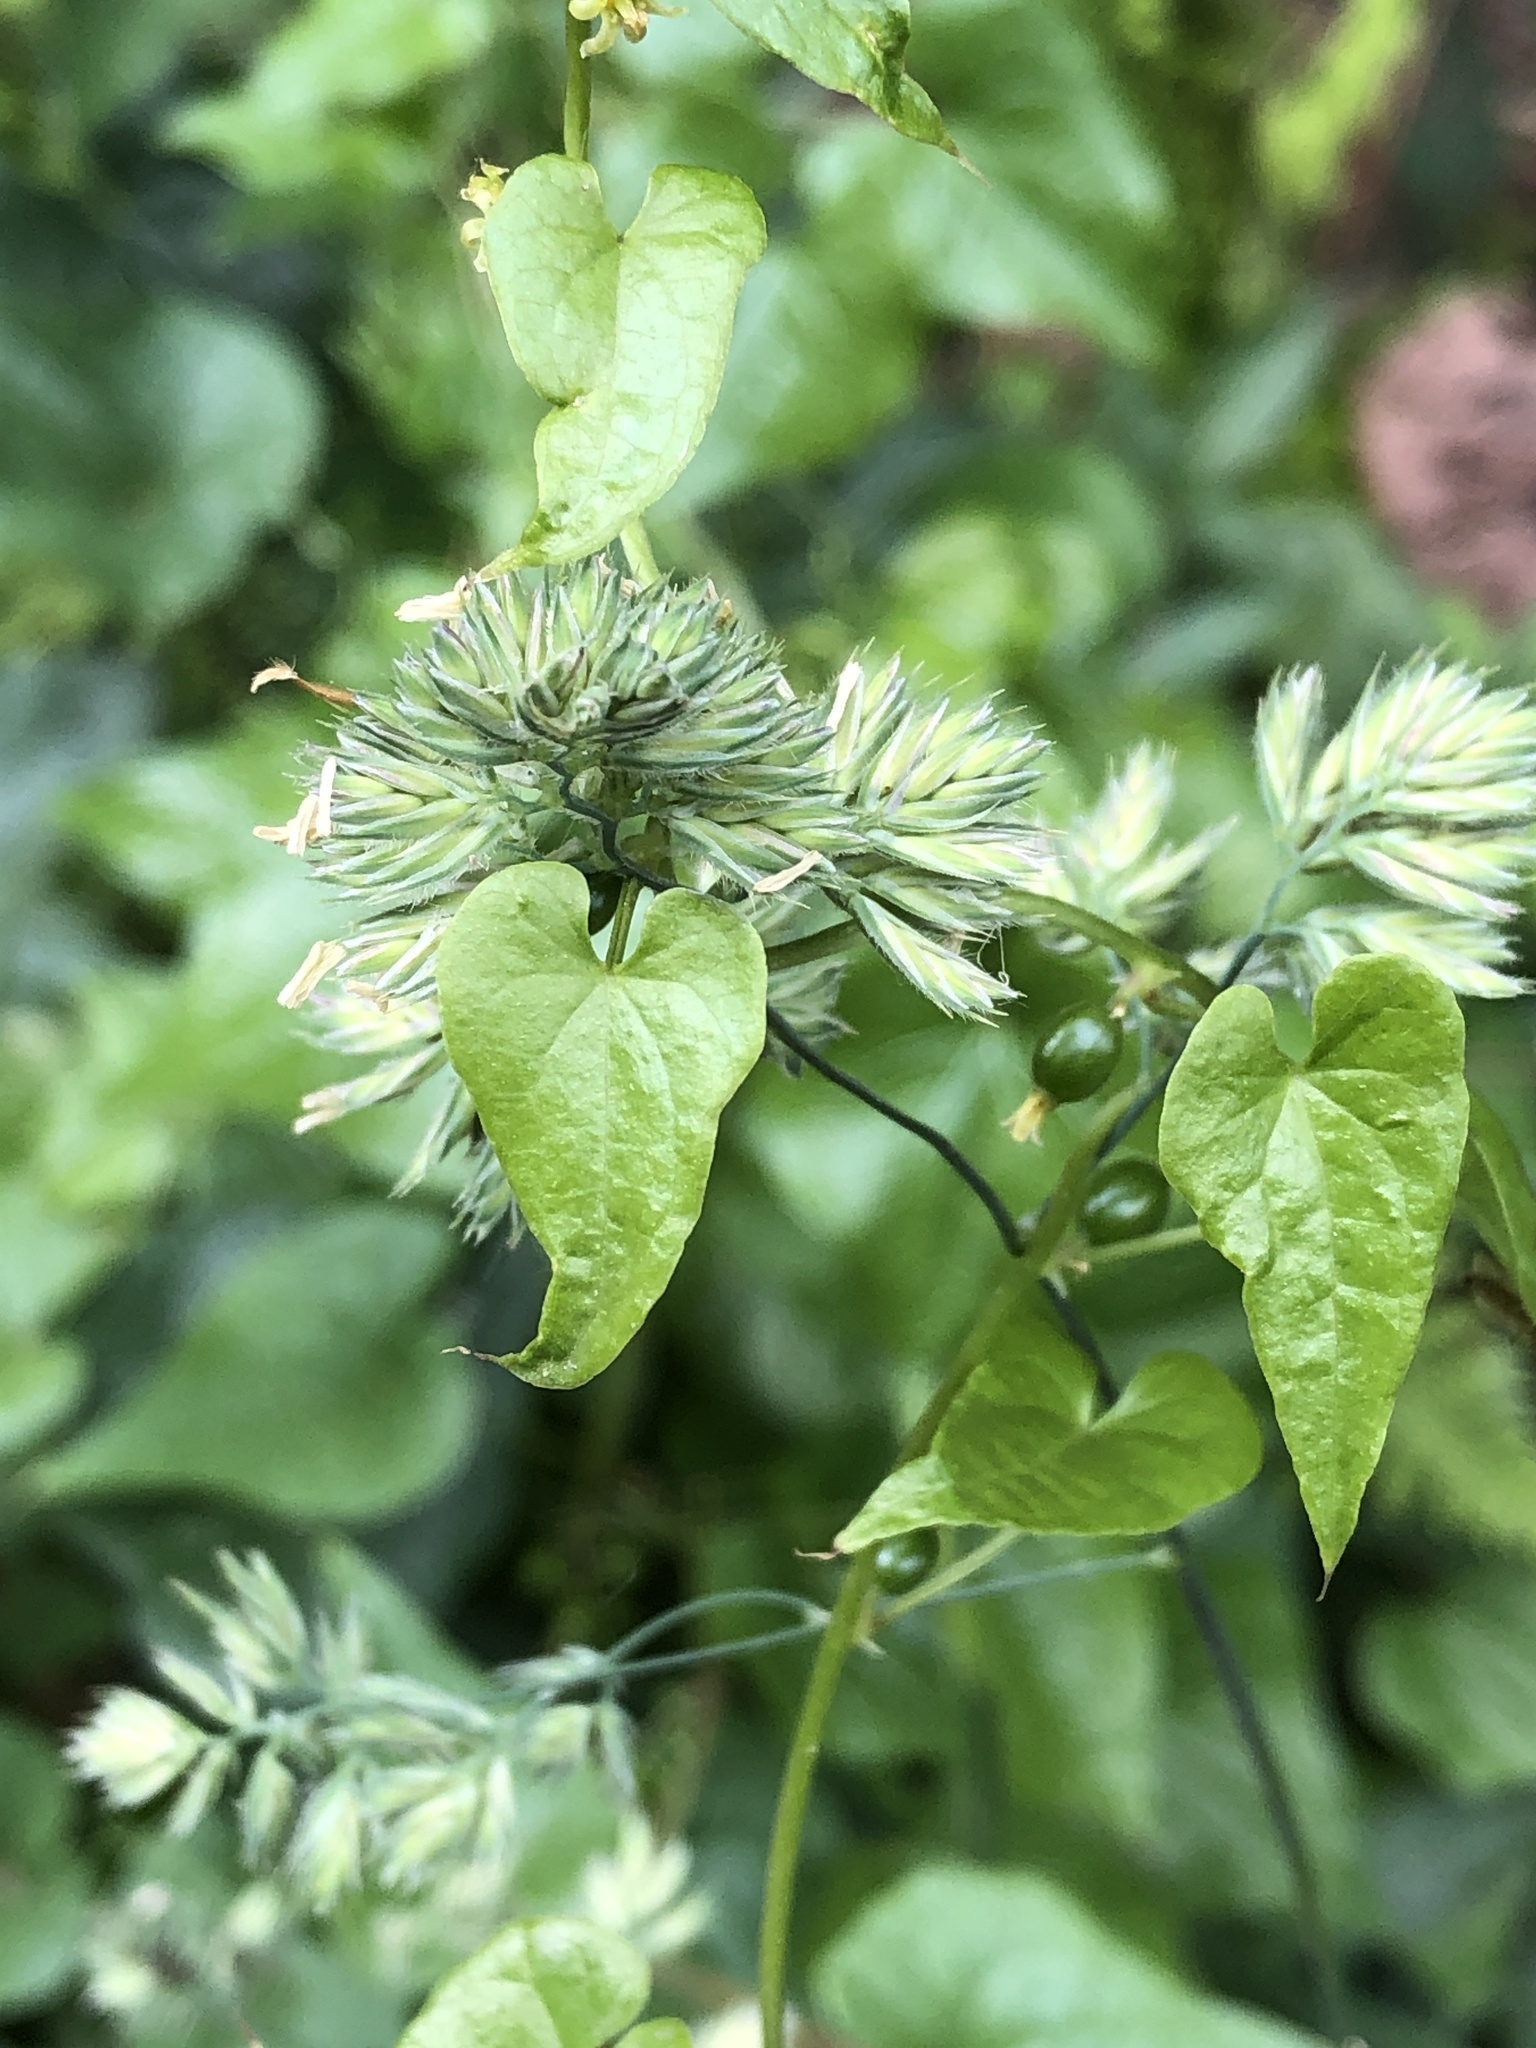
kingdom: Plantae
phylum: Tracheophyta
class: Liliopsida
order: Dioscoreales
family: Dioscoreaceae
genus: Dioscorea
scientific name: Dioscorea communis
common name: Black-bindweed
